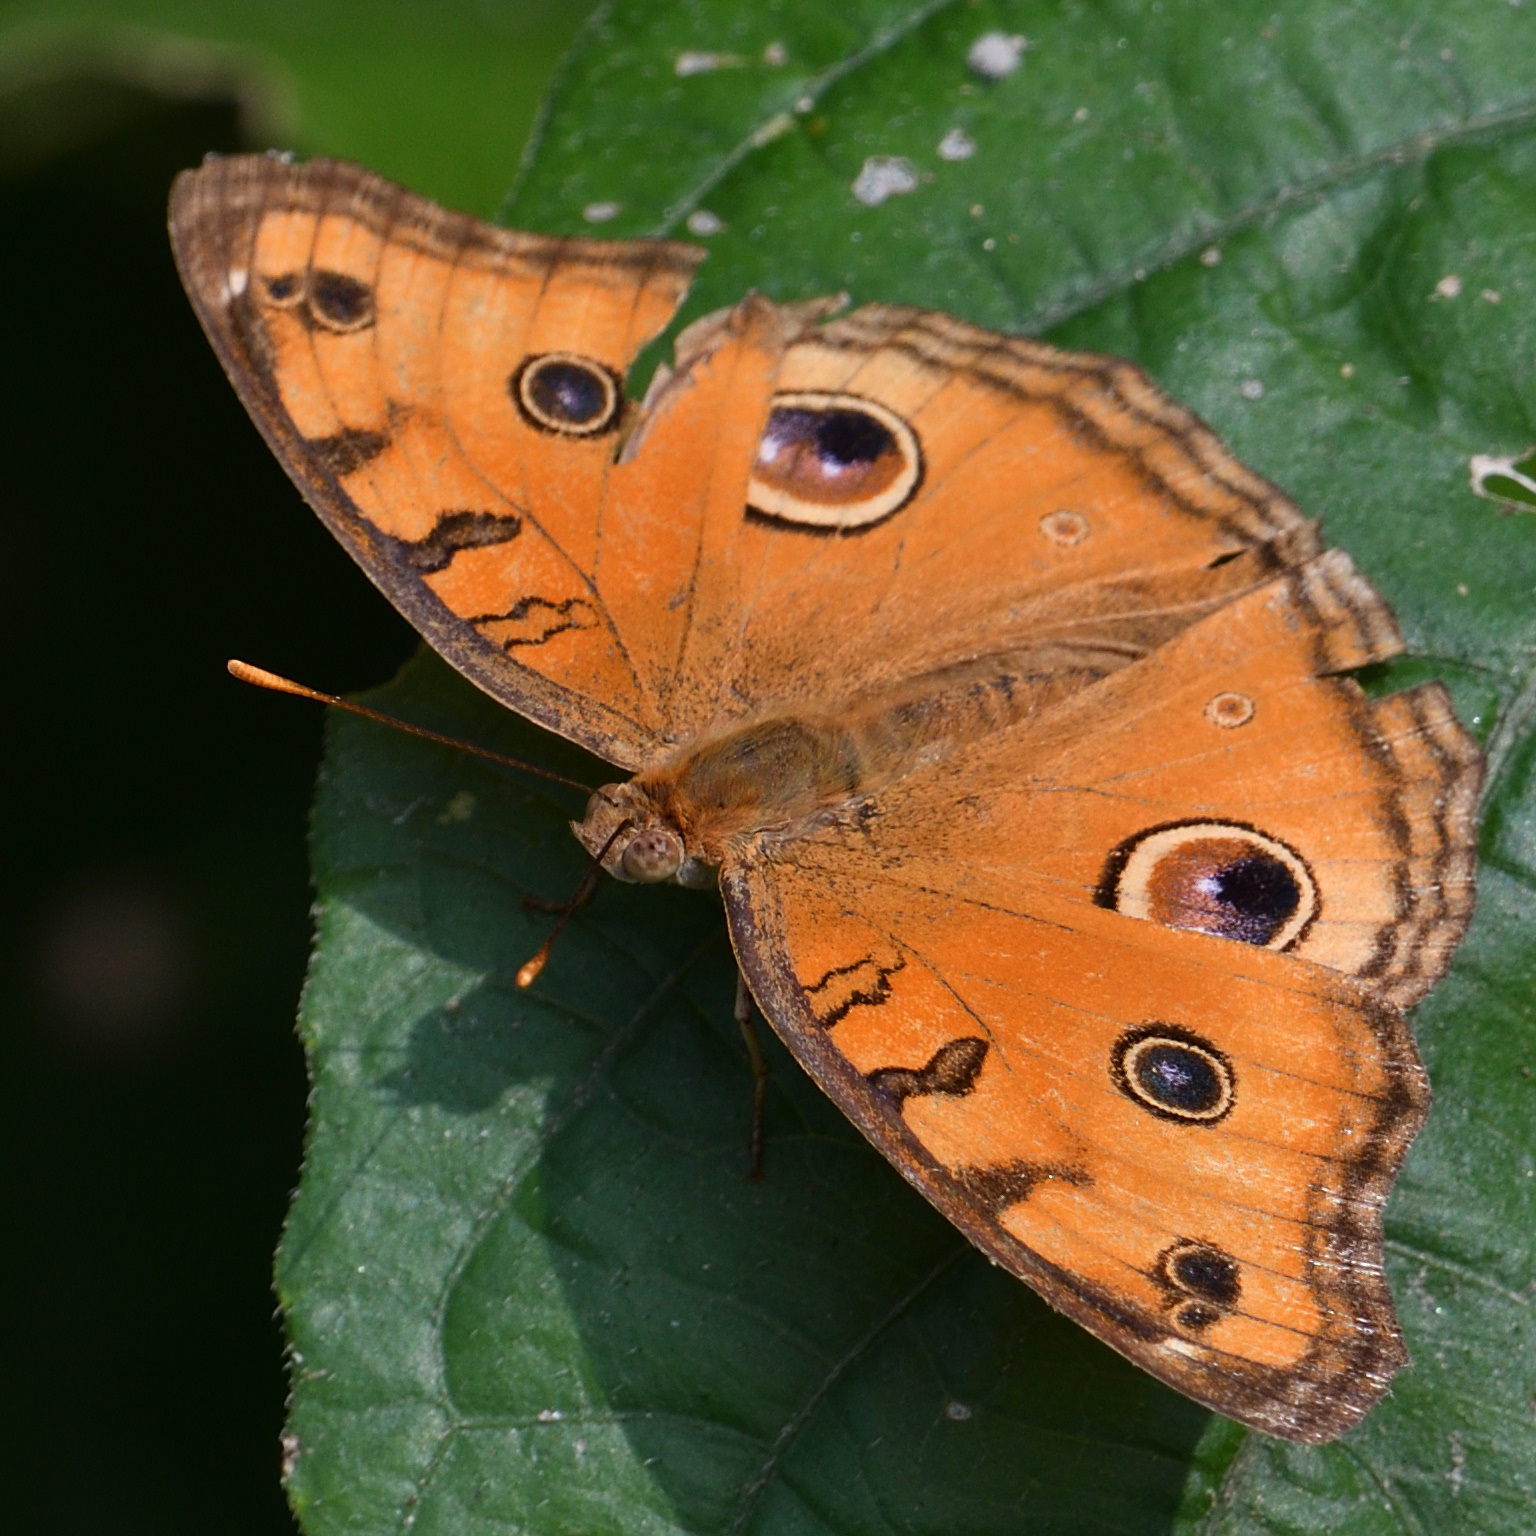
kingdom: Animalia
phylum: Arthropoda
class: Insecta
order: Lepidoptera
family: Nymphalidae
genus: Junonia
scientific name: Junonia almana
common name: Peacock pansy
